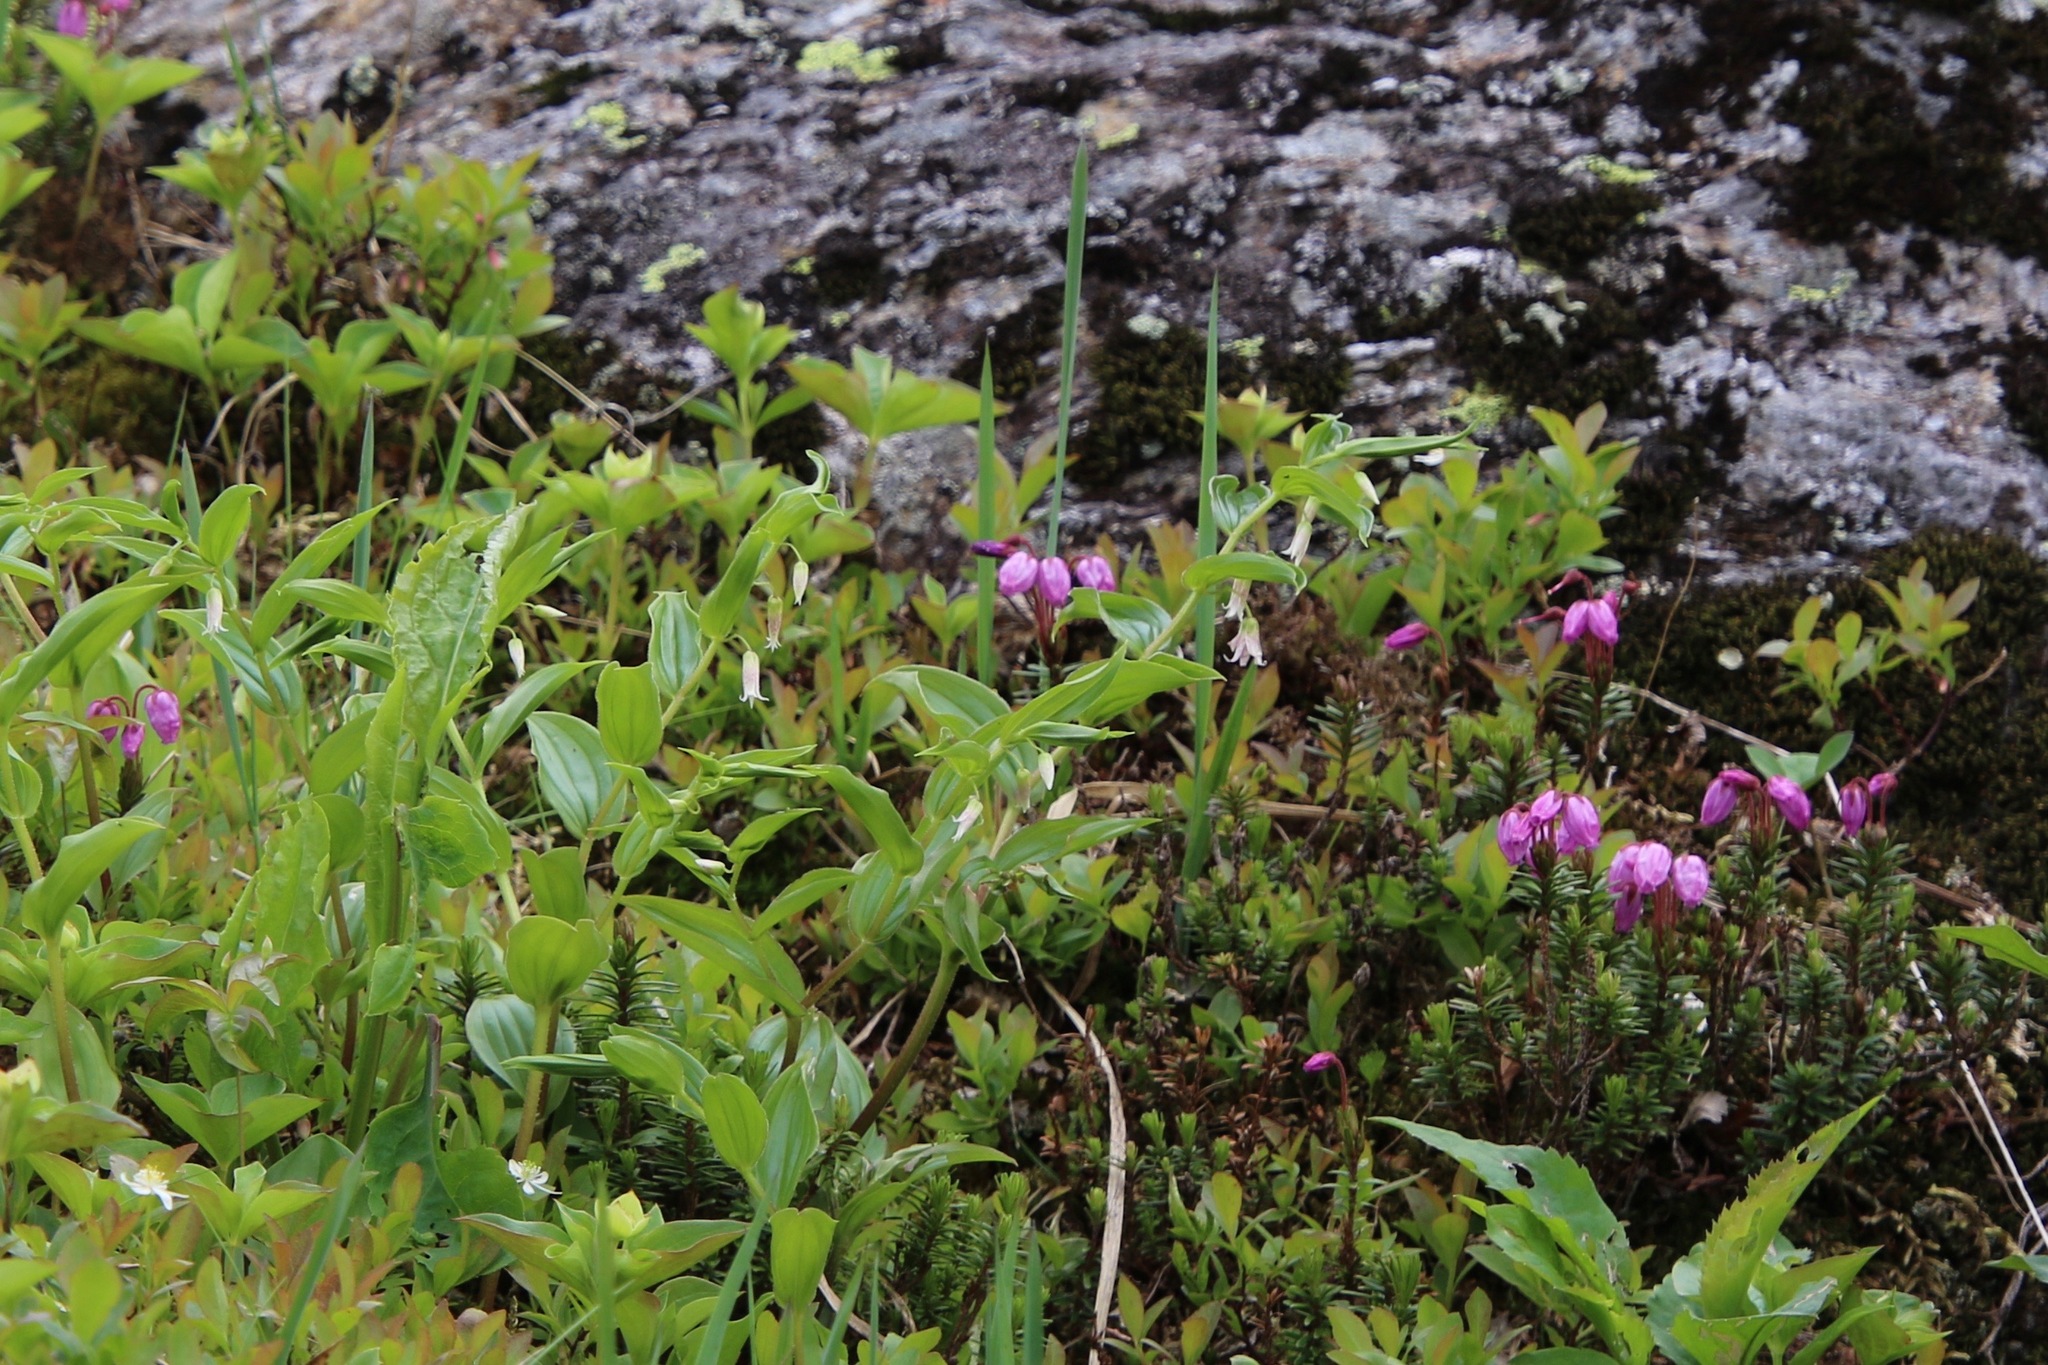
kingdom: Plantae
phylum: Tracheophyta
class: Liliopsida
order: Liliales
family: Liliaceae
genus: Streptopus
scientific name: Streptopus lanceolatus
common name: Rose mandarin
